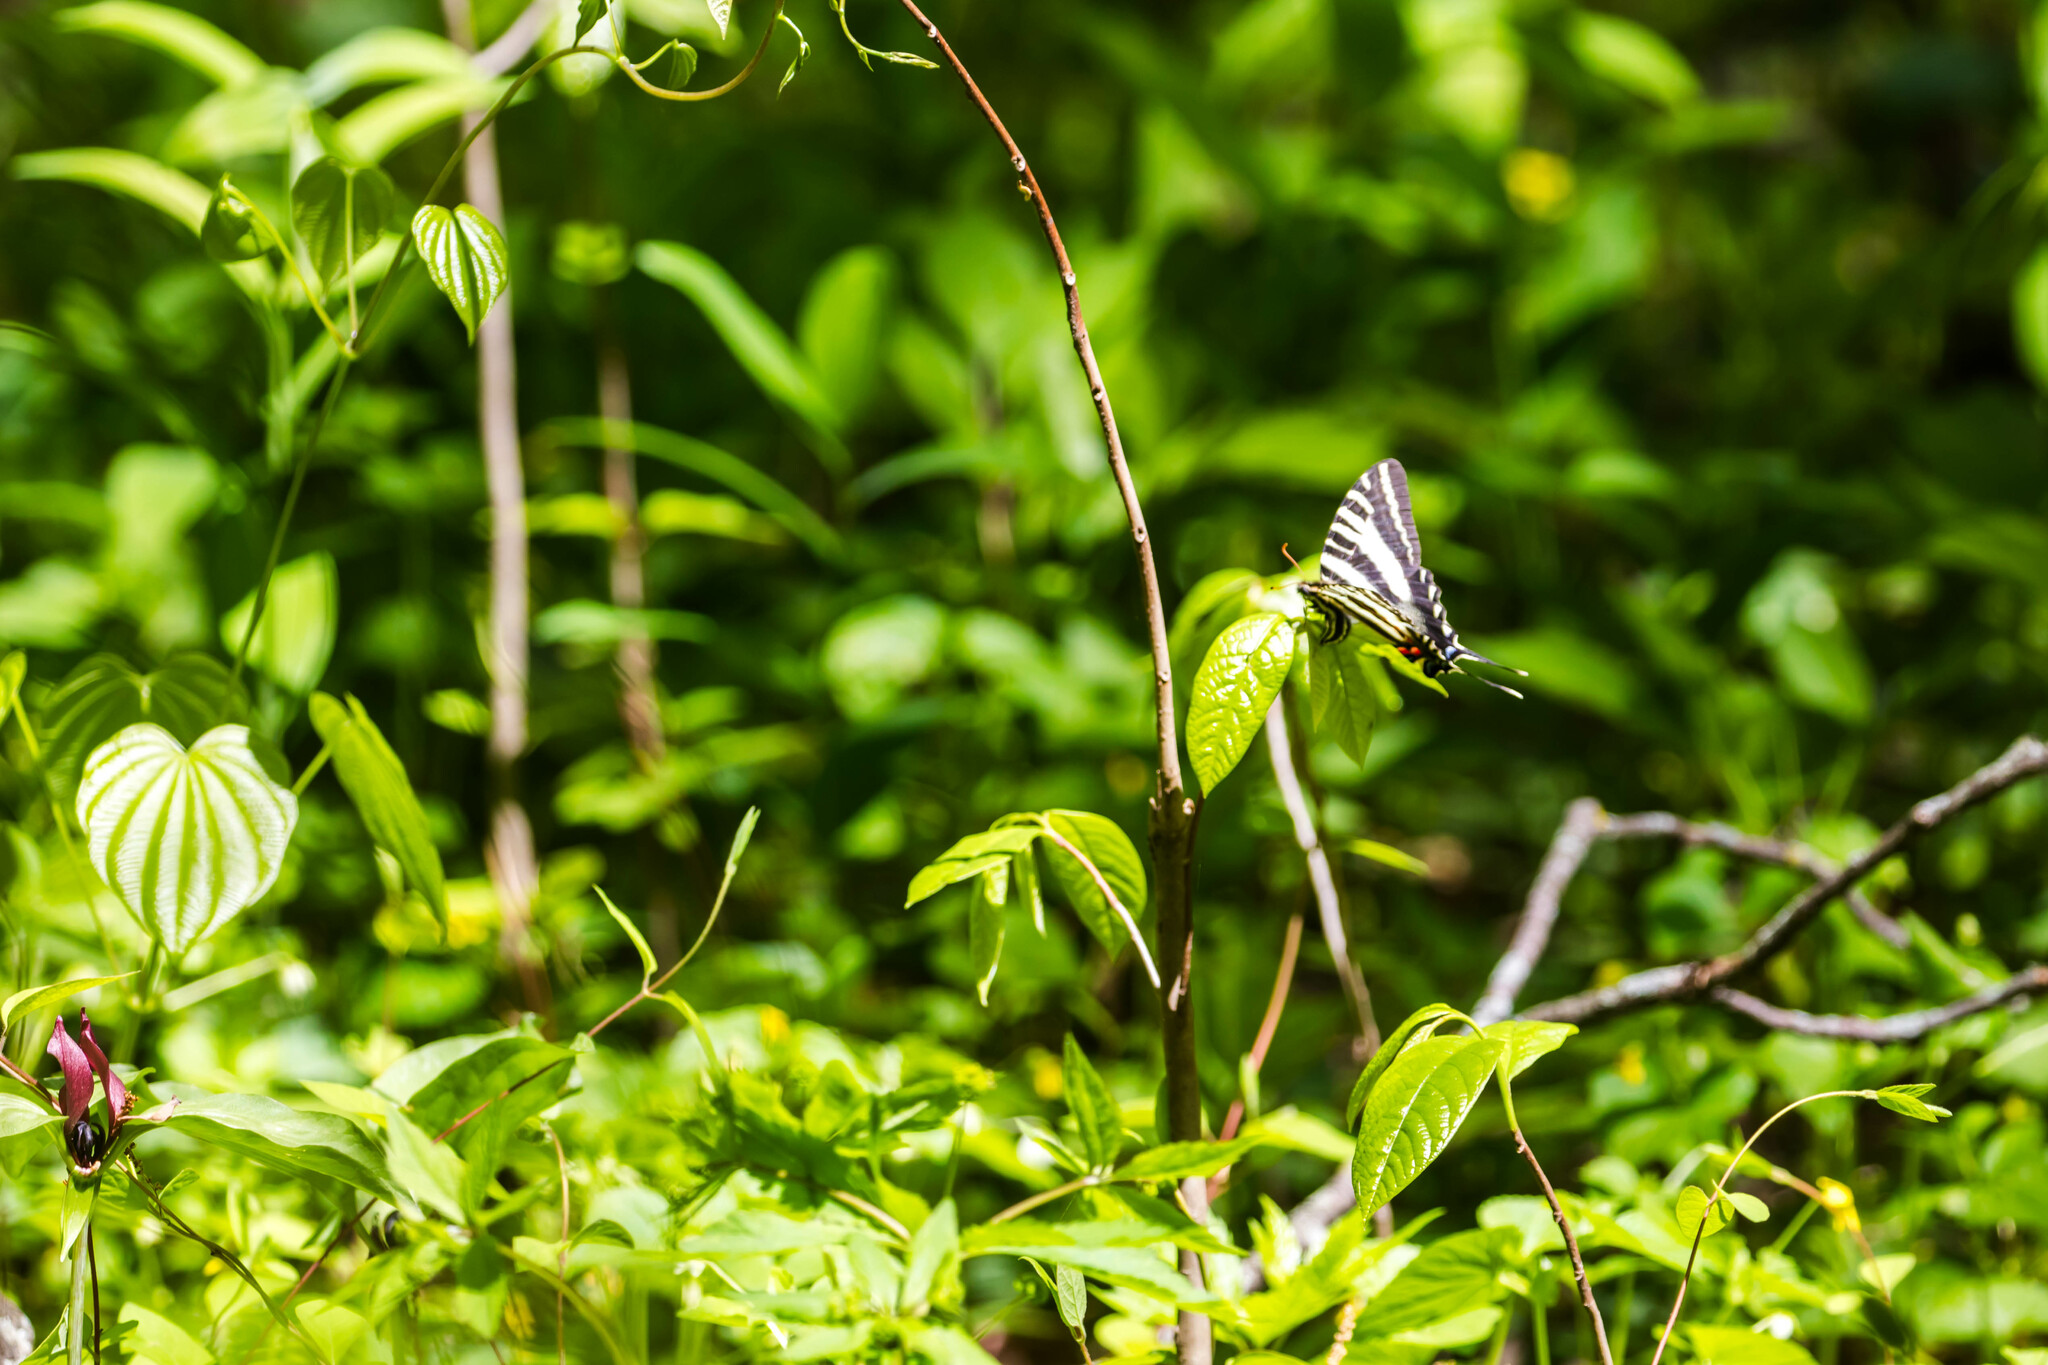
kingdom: Animalia
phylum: Arthropoda
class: Insecta
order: Lepidoptera
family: Papilionidae
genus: Protographium
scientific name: Protographium marcellus
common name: Zebra swallowtail
